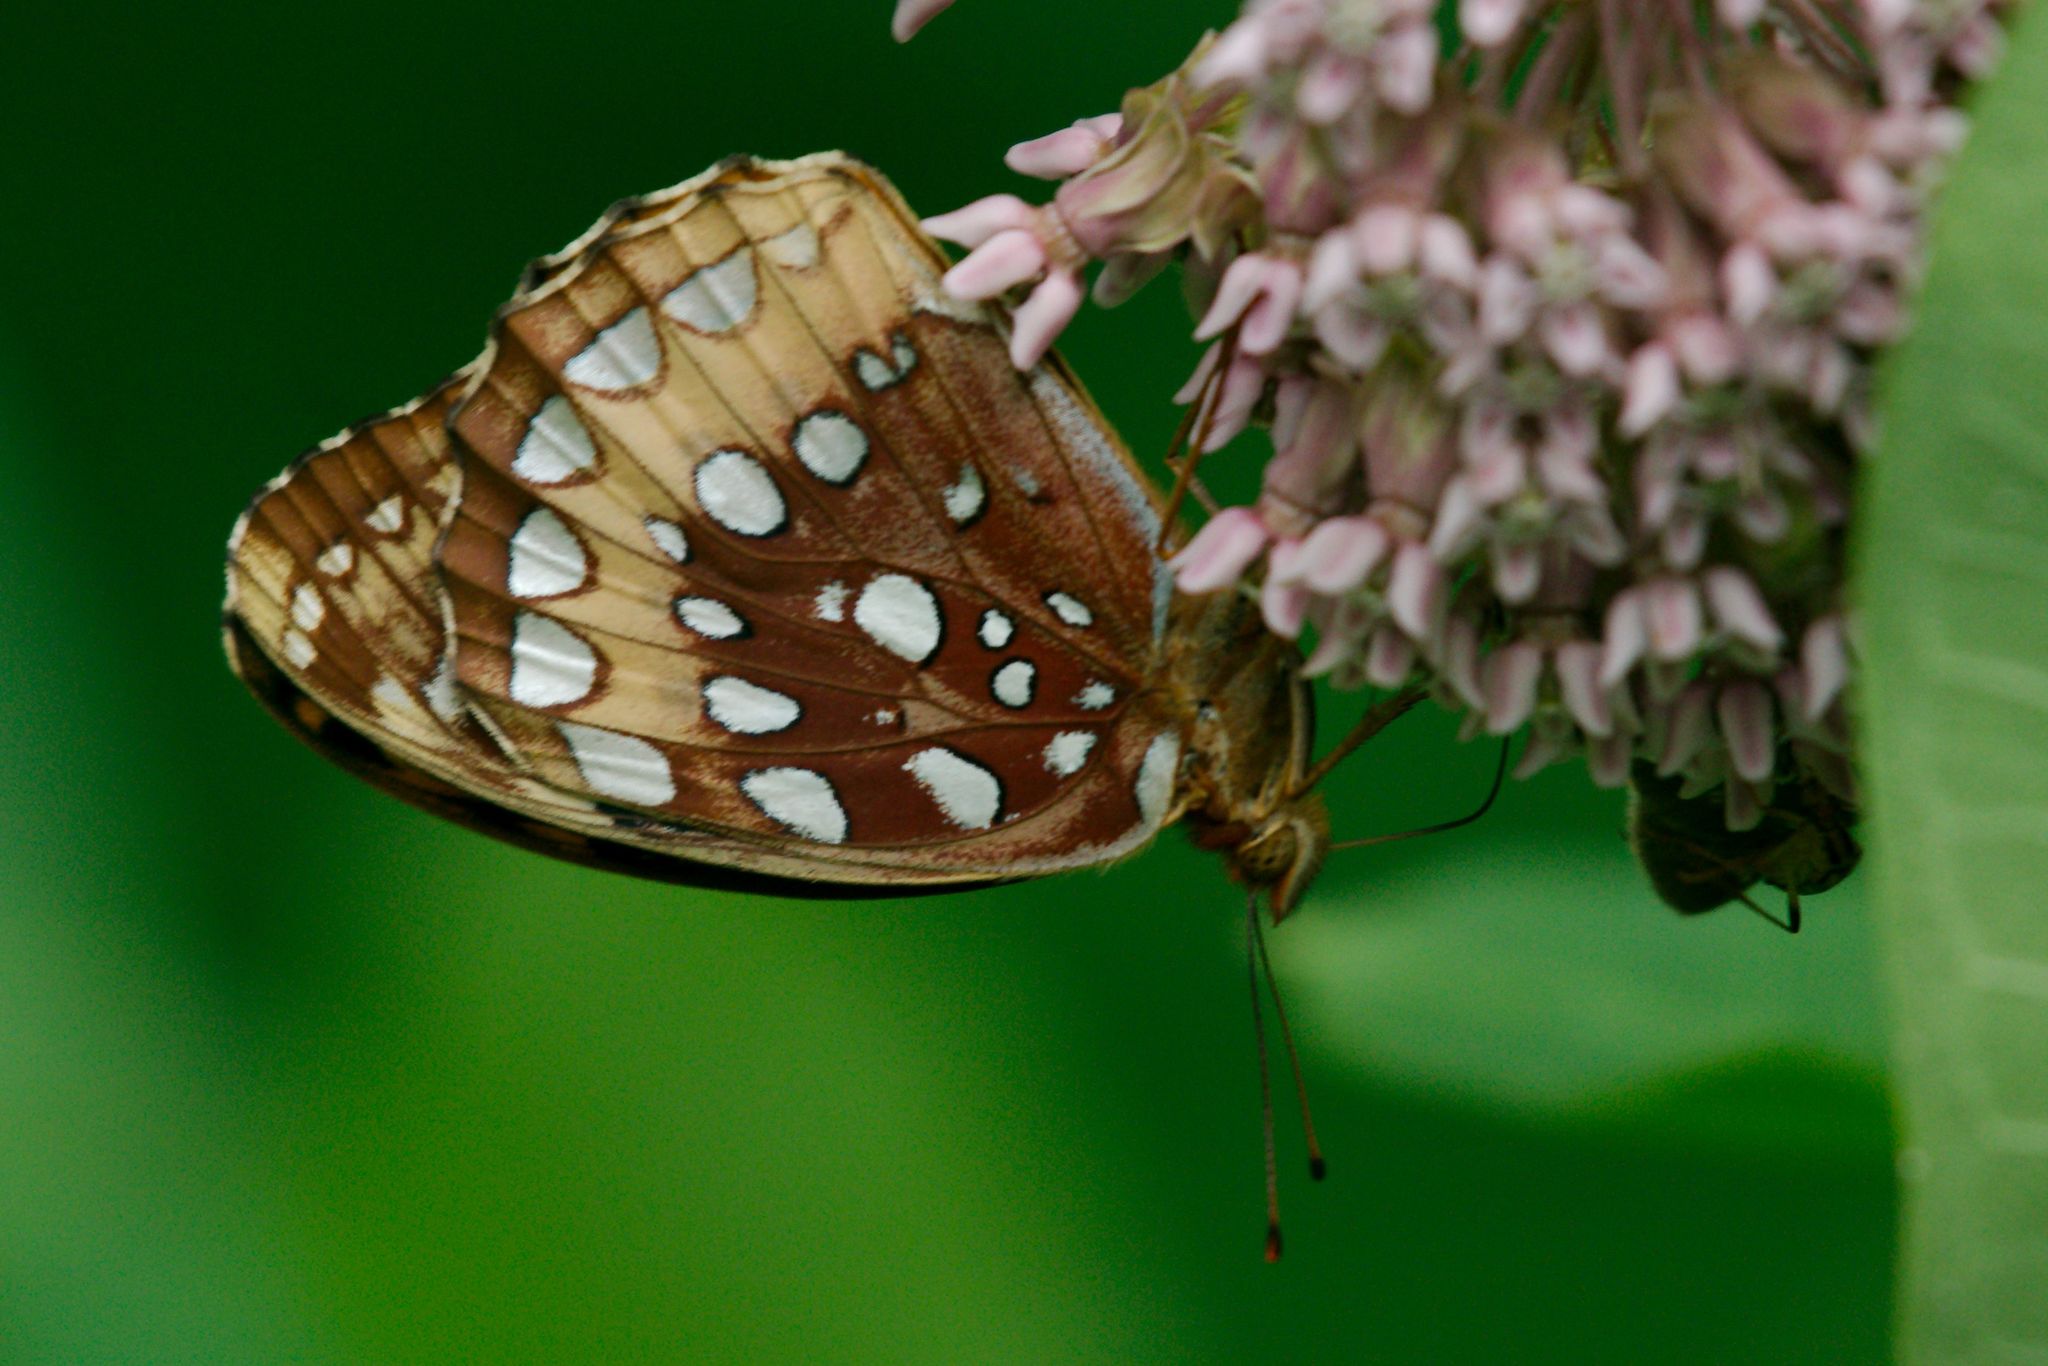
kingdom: Animalia
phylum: Arthropoda
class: Insecta
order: Lepidoptera
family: Nymphalidae
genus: Speyeria
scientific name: Speyeria cybele
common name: Great spangled fritillary
